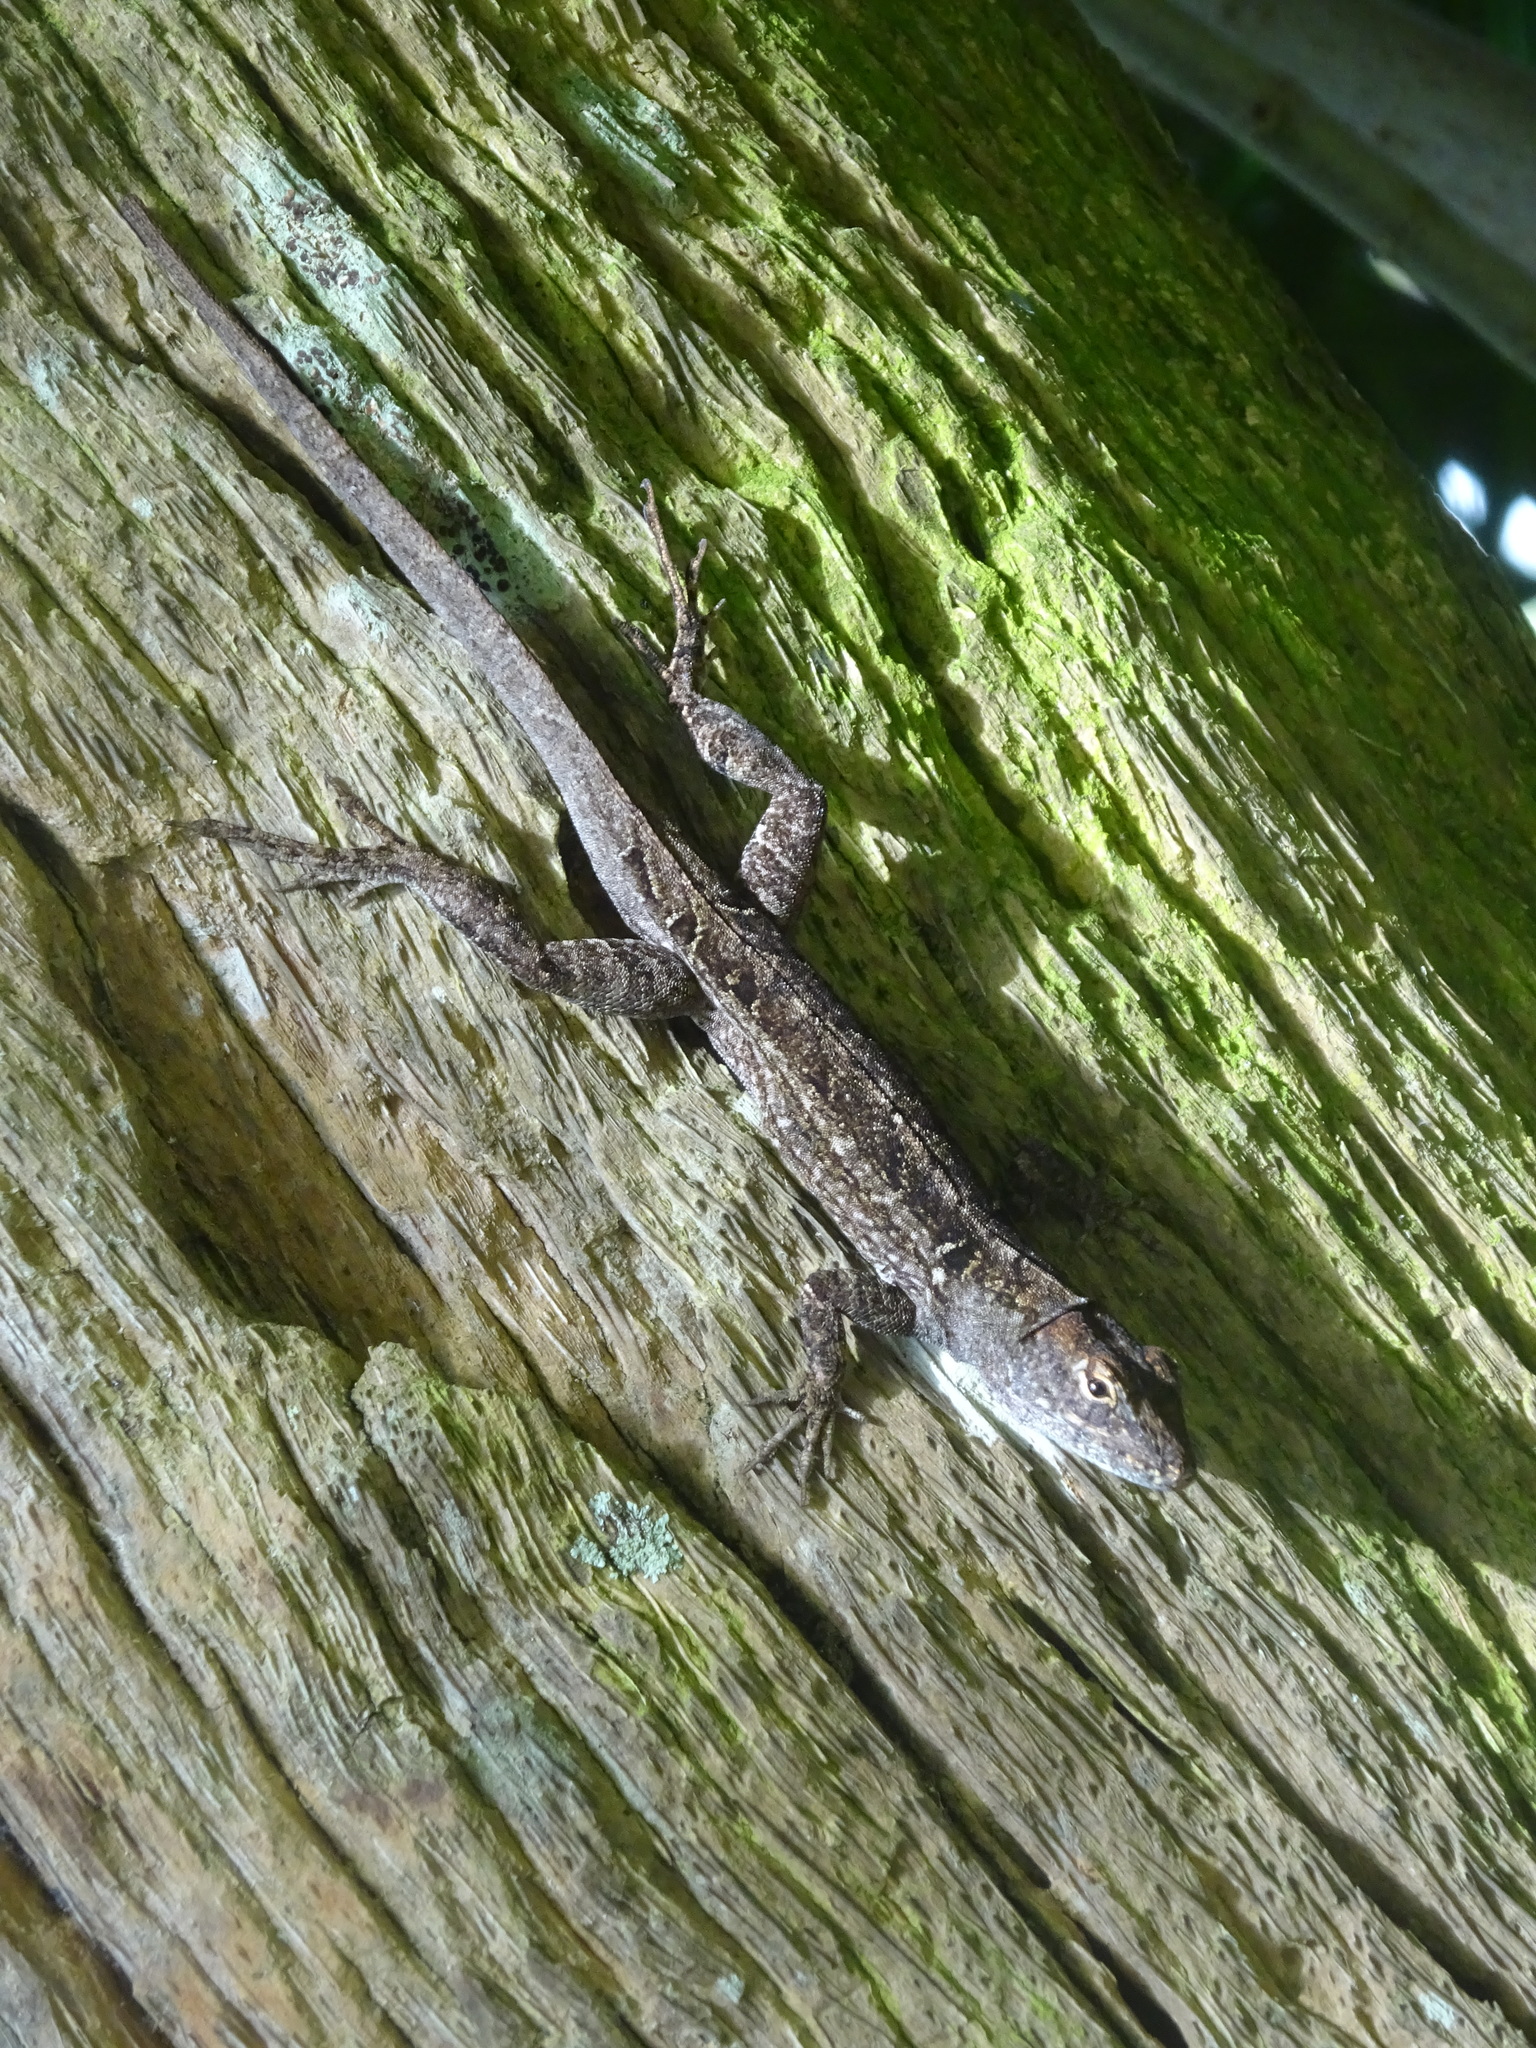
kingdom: Animalia
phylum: Chordata
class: Squamata
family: Dactyloidae
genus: Anolis
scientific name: Anolis sagrei
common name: Brown anole
